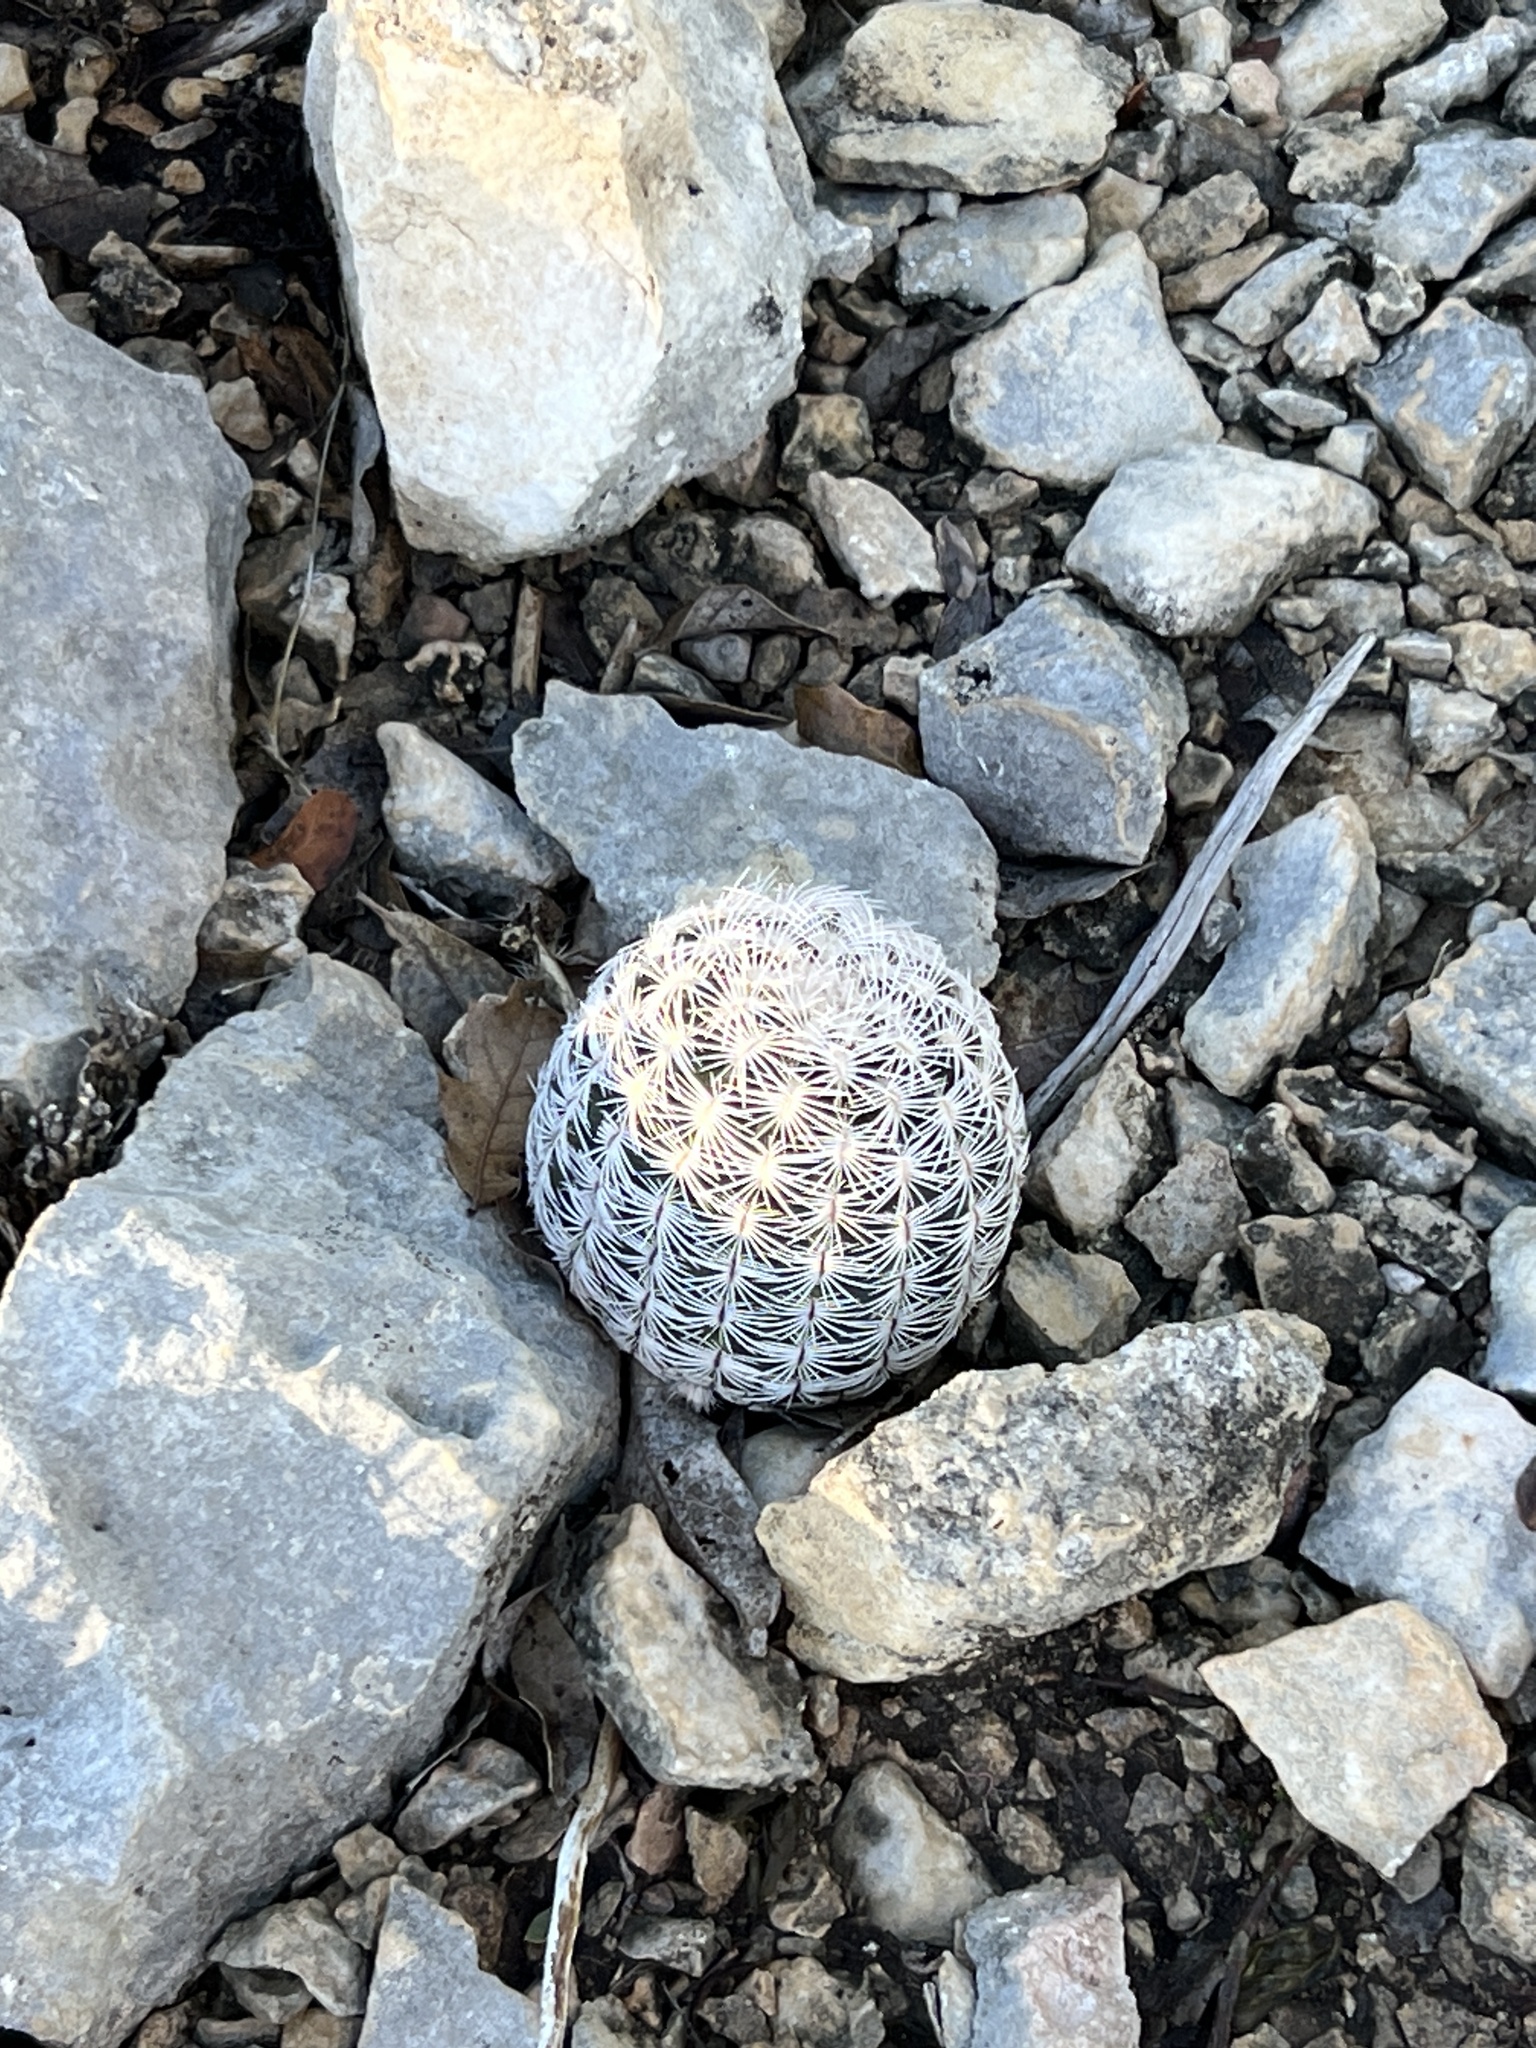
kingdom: Plantae
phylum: Tracheophyta
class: Magnoliopsida
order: Caryophyllales
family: Cactaceae
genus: Echinocereus
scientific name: Echinocereus reichenbachii
